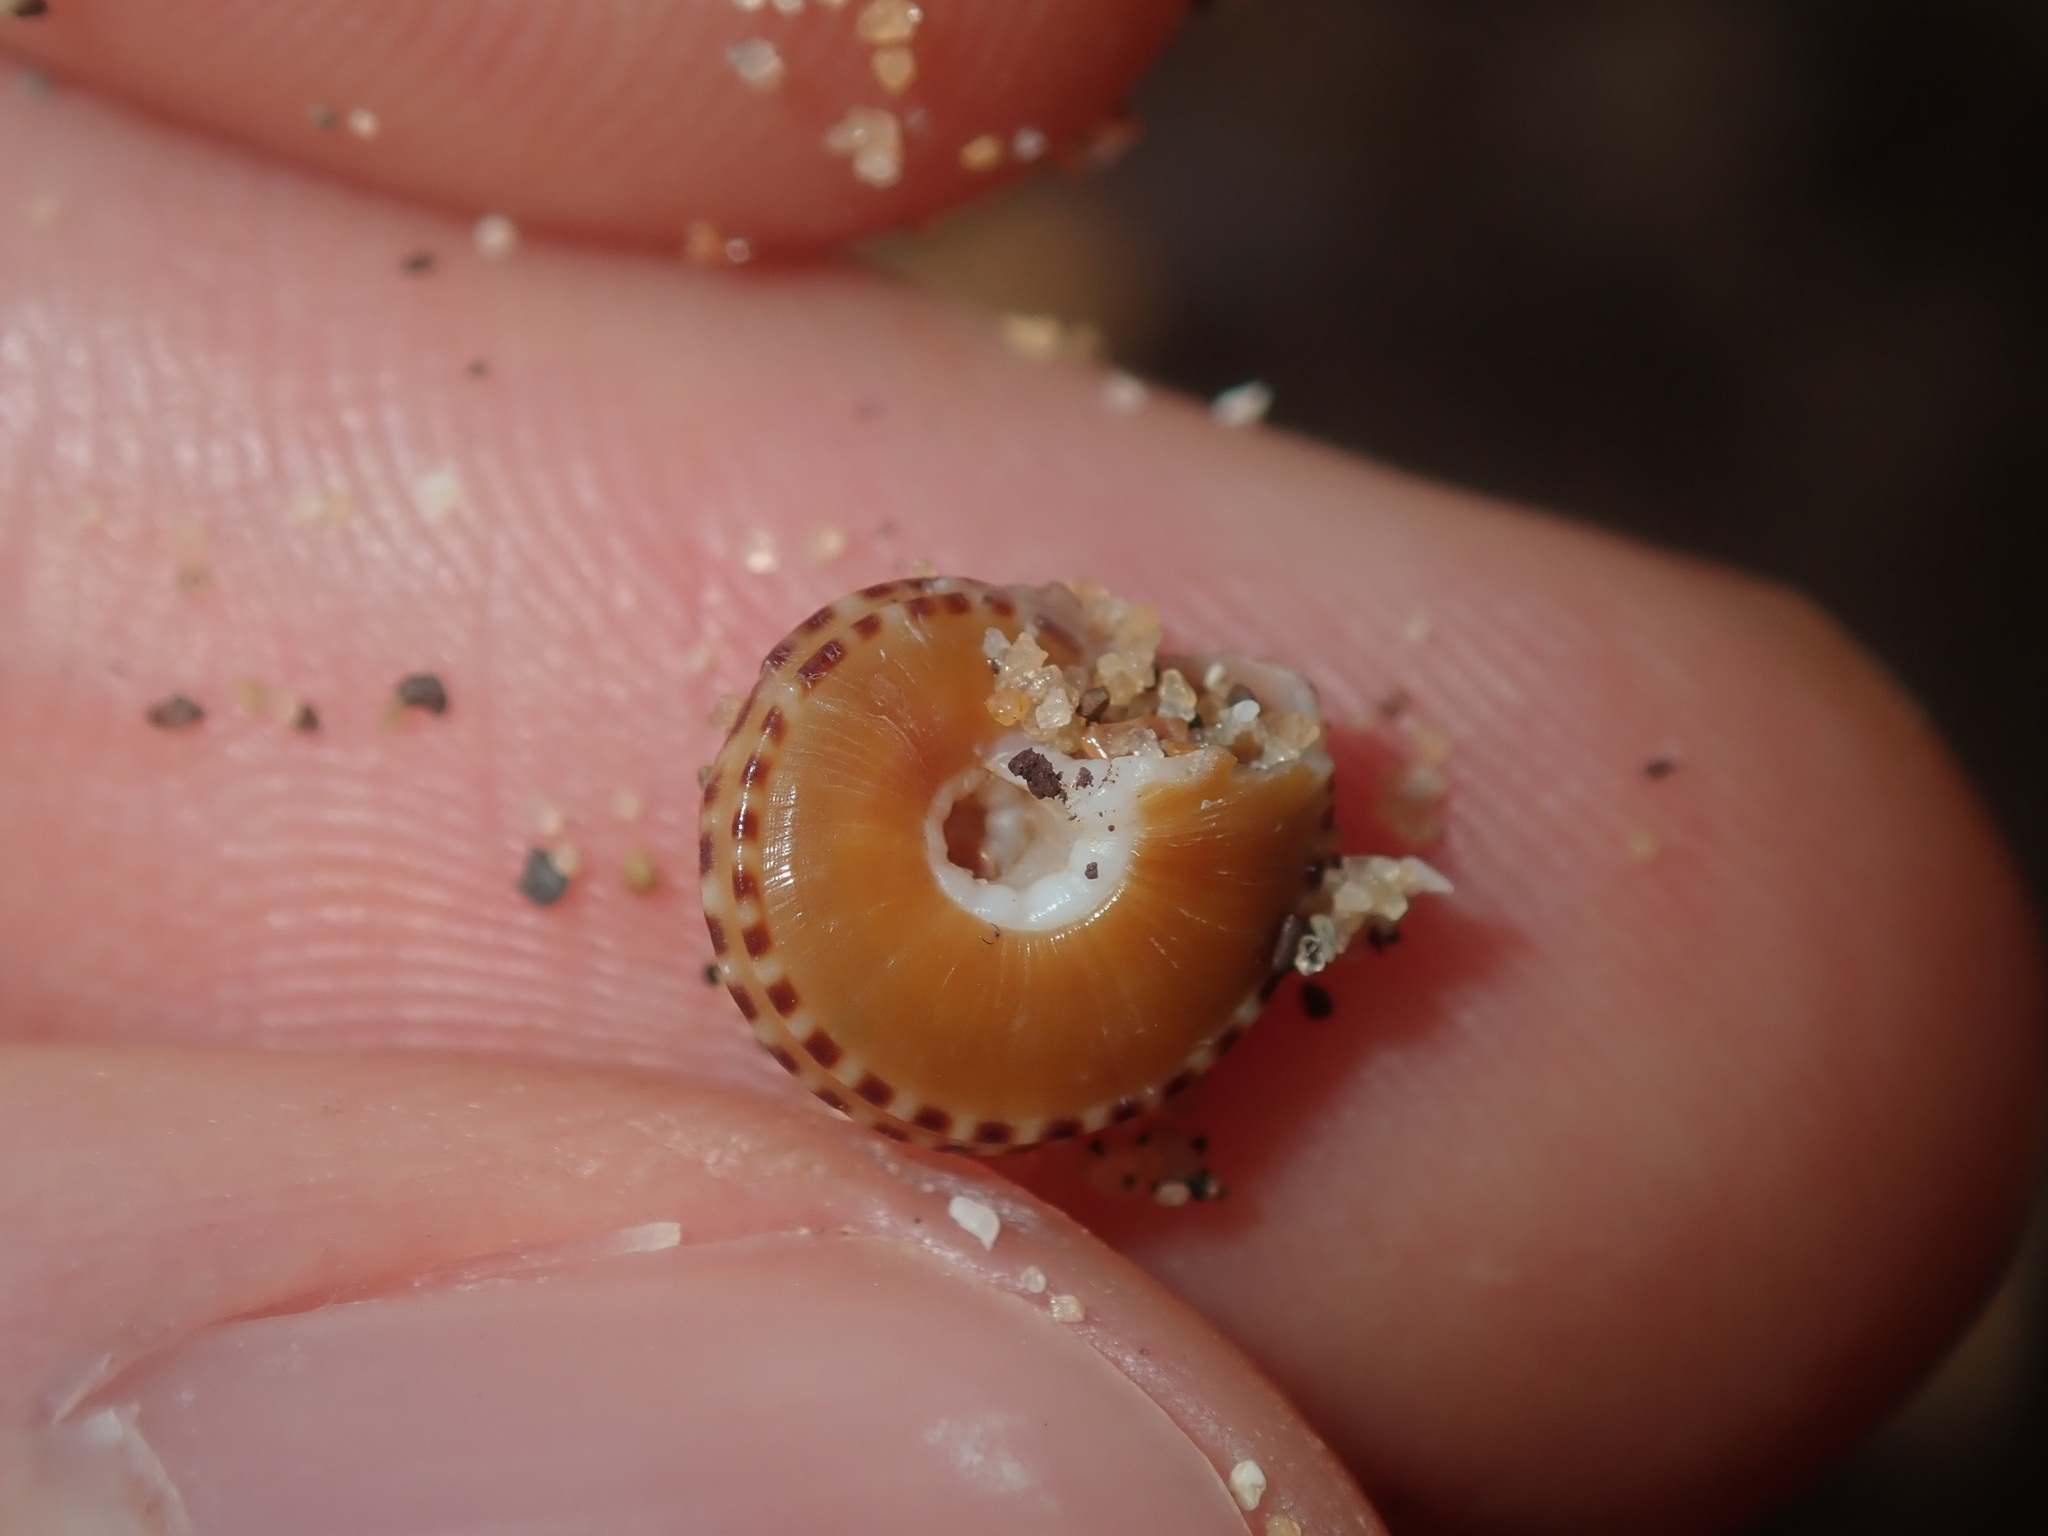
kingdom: Animalia
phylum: Mollusca
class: Gastropoda
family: Architectonicidae
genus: Philippia
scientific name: Philippia lutea
